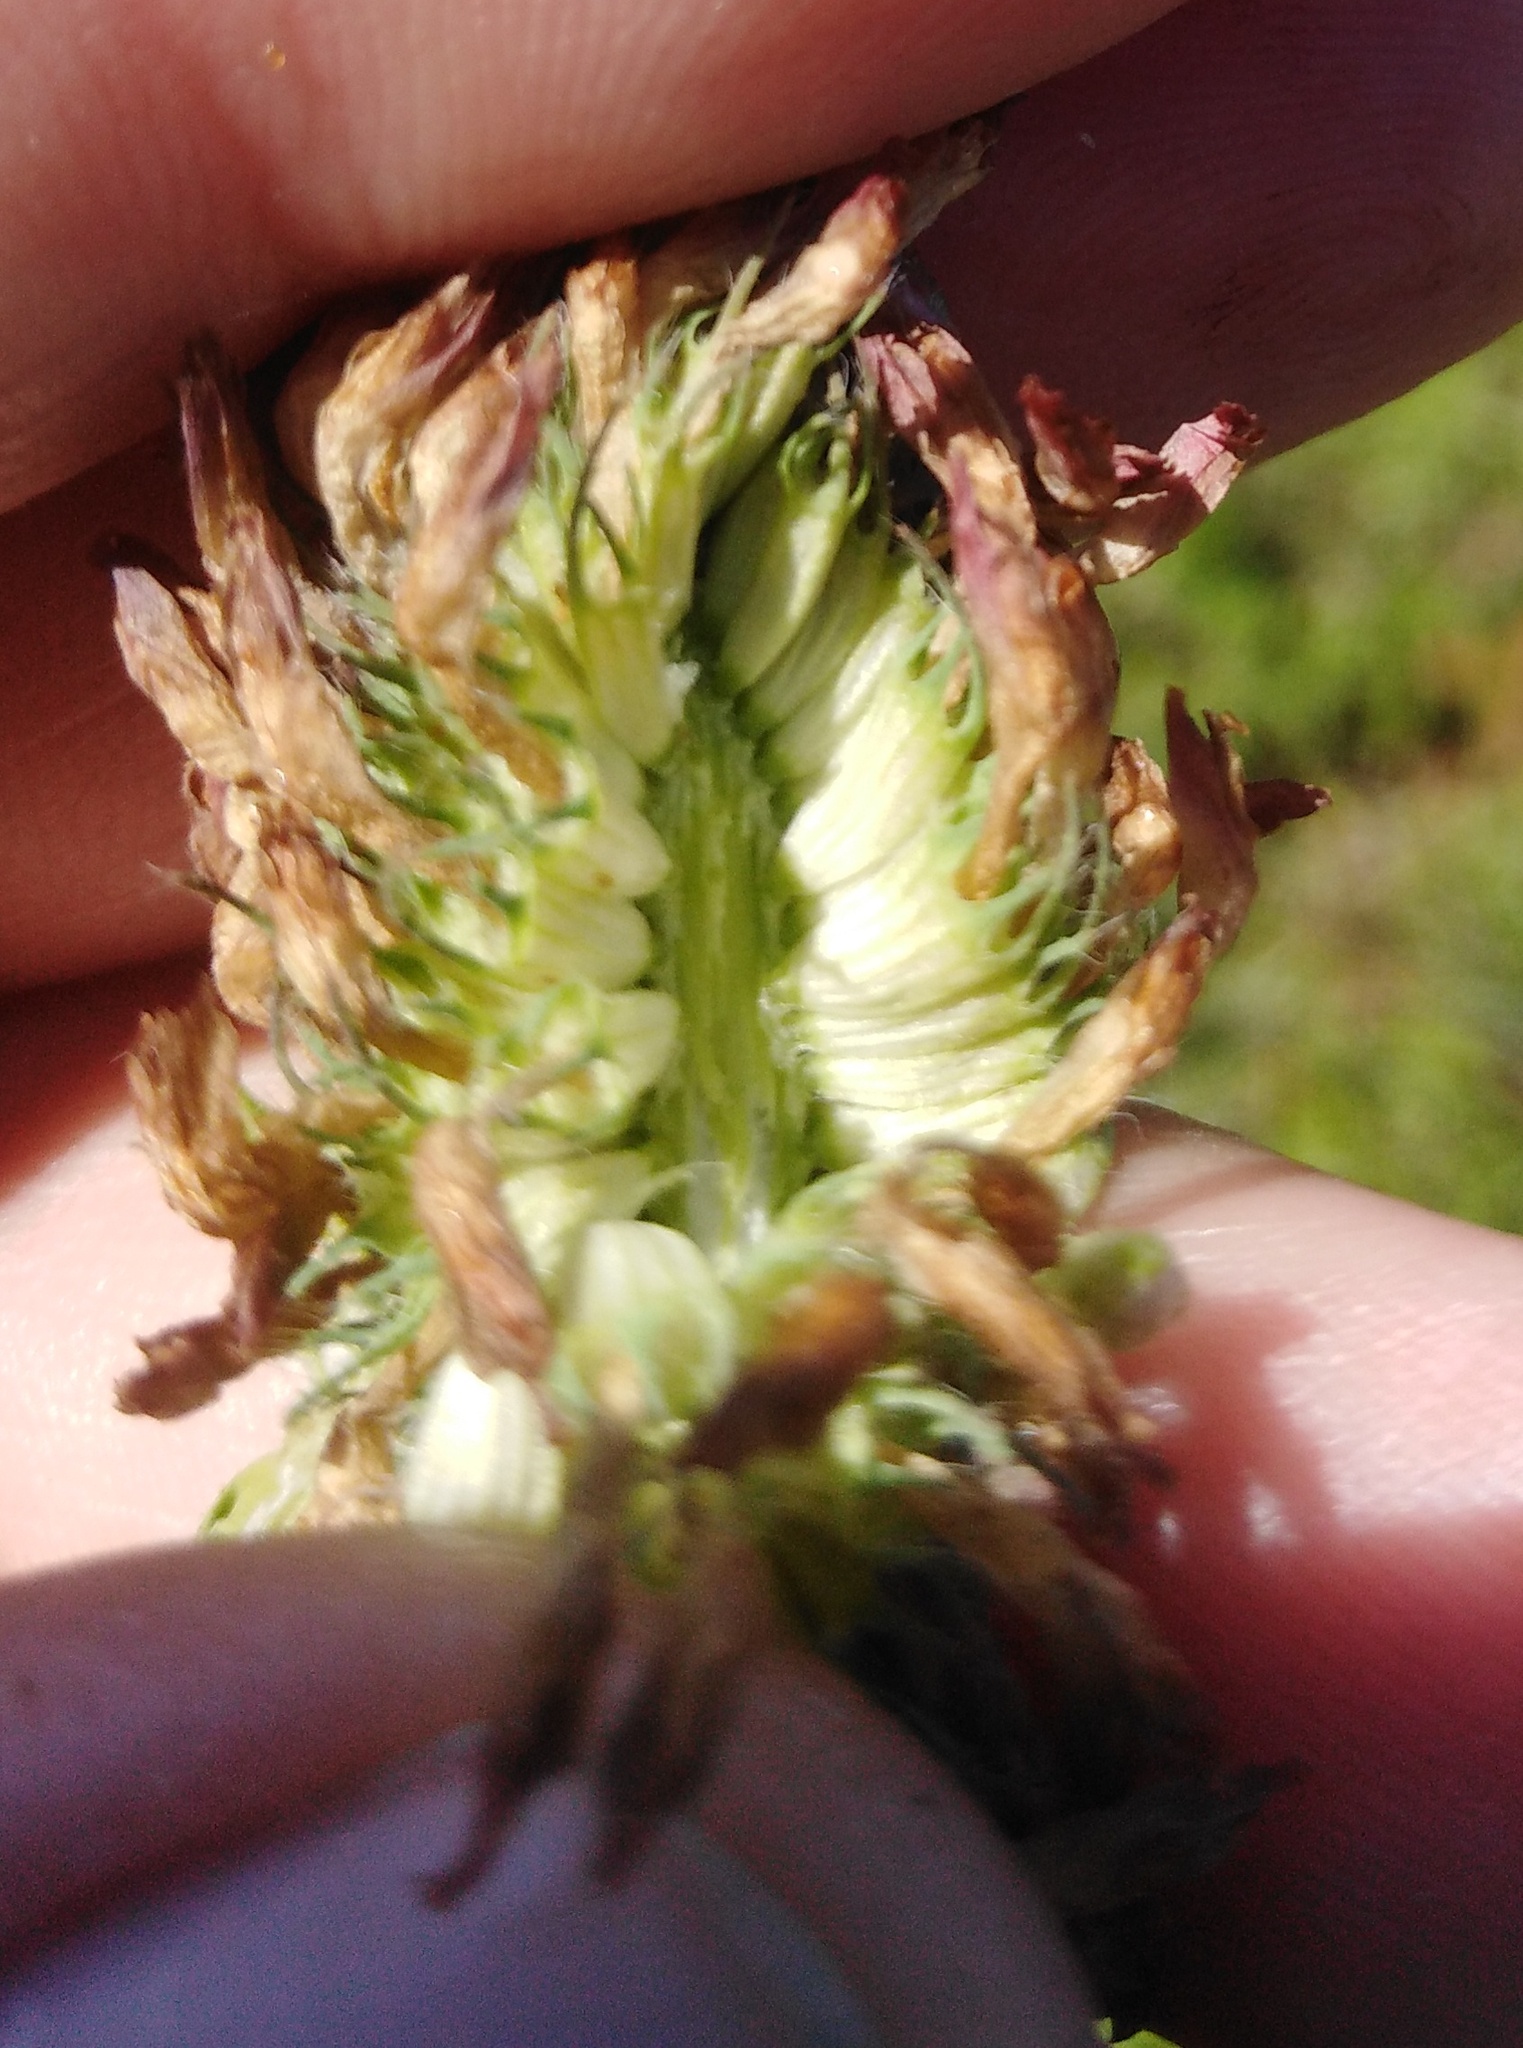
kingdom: Plantae
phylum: Tracheophyta
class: Magnoliopsida
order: Fabales
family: Fabaceae
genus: Trifolium
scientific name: Trifolium medium
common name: Zigzag clover
